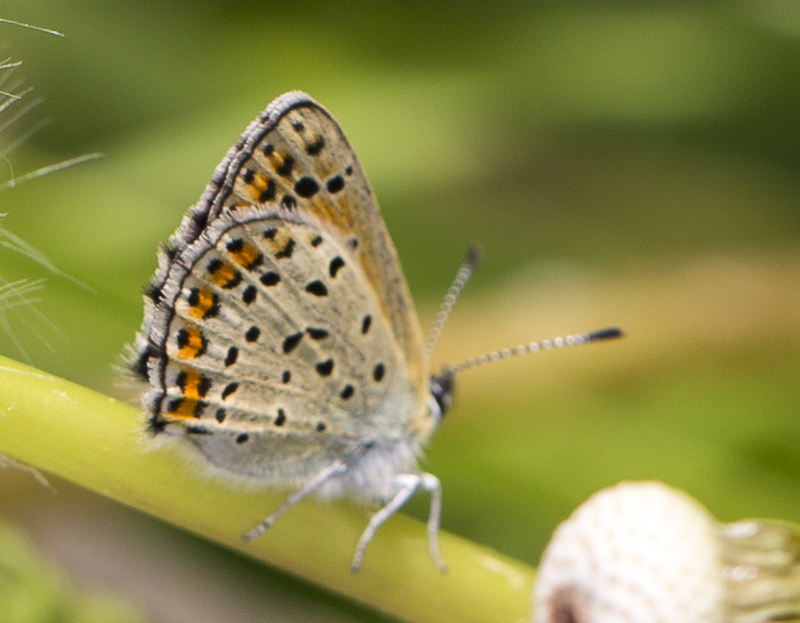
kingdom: Animalia
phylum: Arthropoda
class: Insecta
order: Lepidoptera
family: Lycaenidae
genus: Loweia
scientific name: Loweia tityrus
